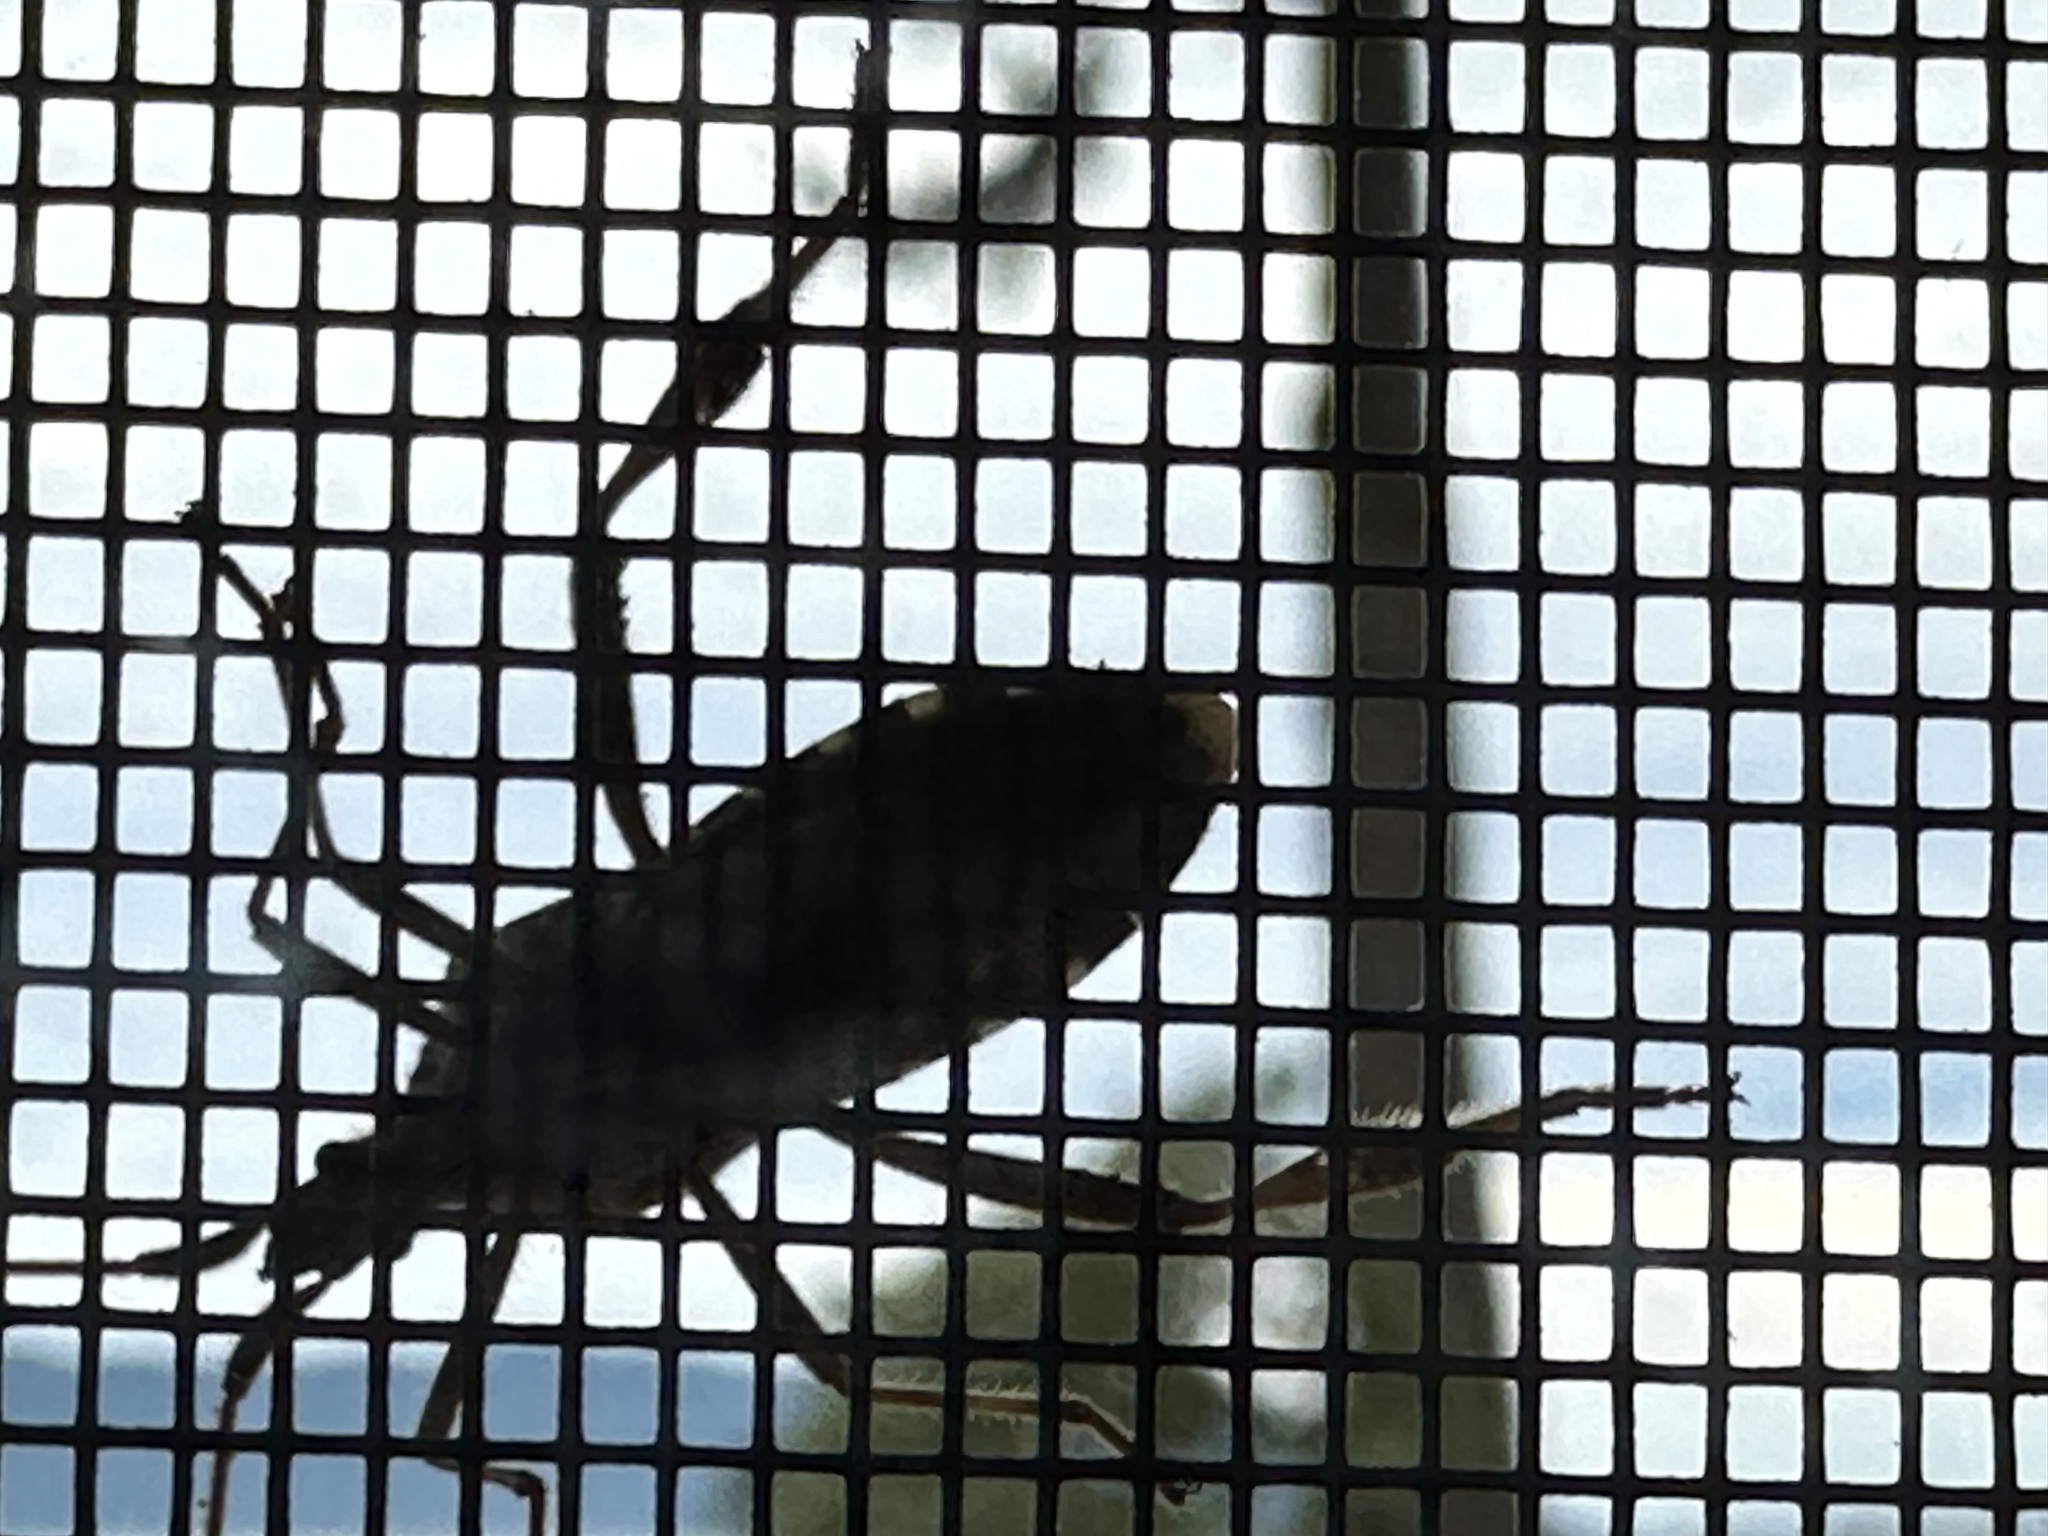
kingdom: Animalia
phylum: Arthropoda
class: Insecta
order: Hemiptera
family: Coreidae
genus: Leptoglossus
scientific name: Leptoglossus occidentalis
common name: Western conifer-seed bug
